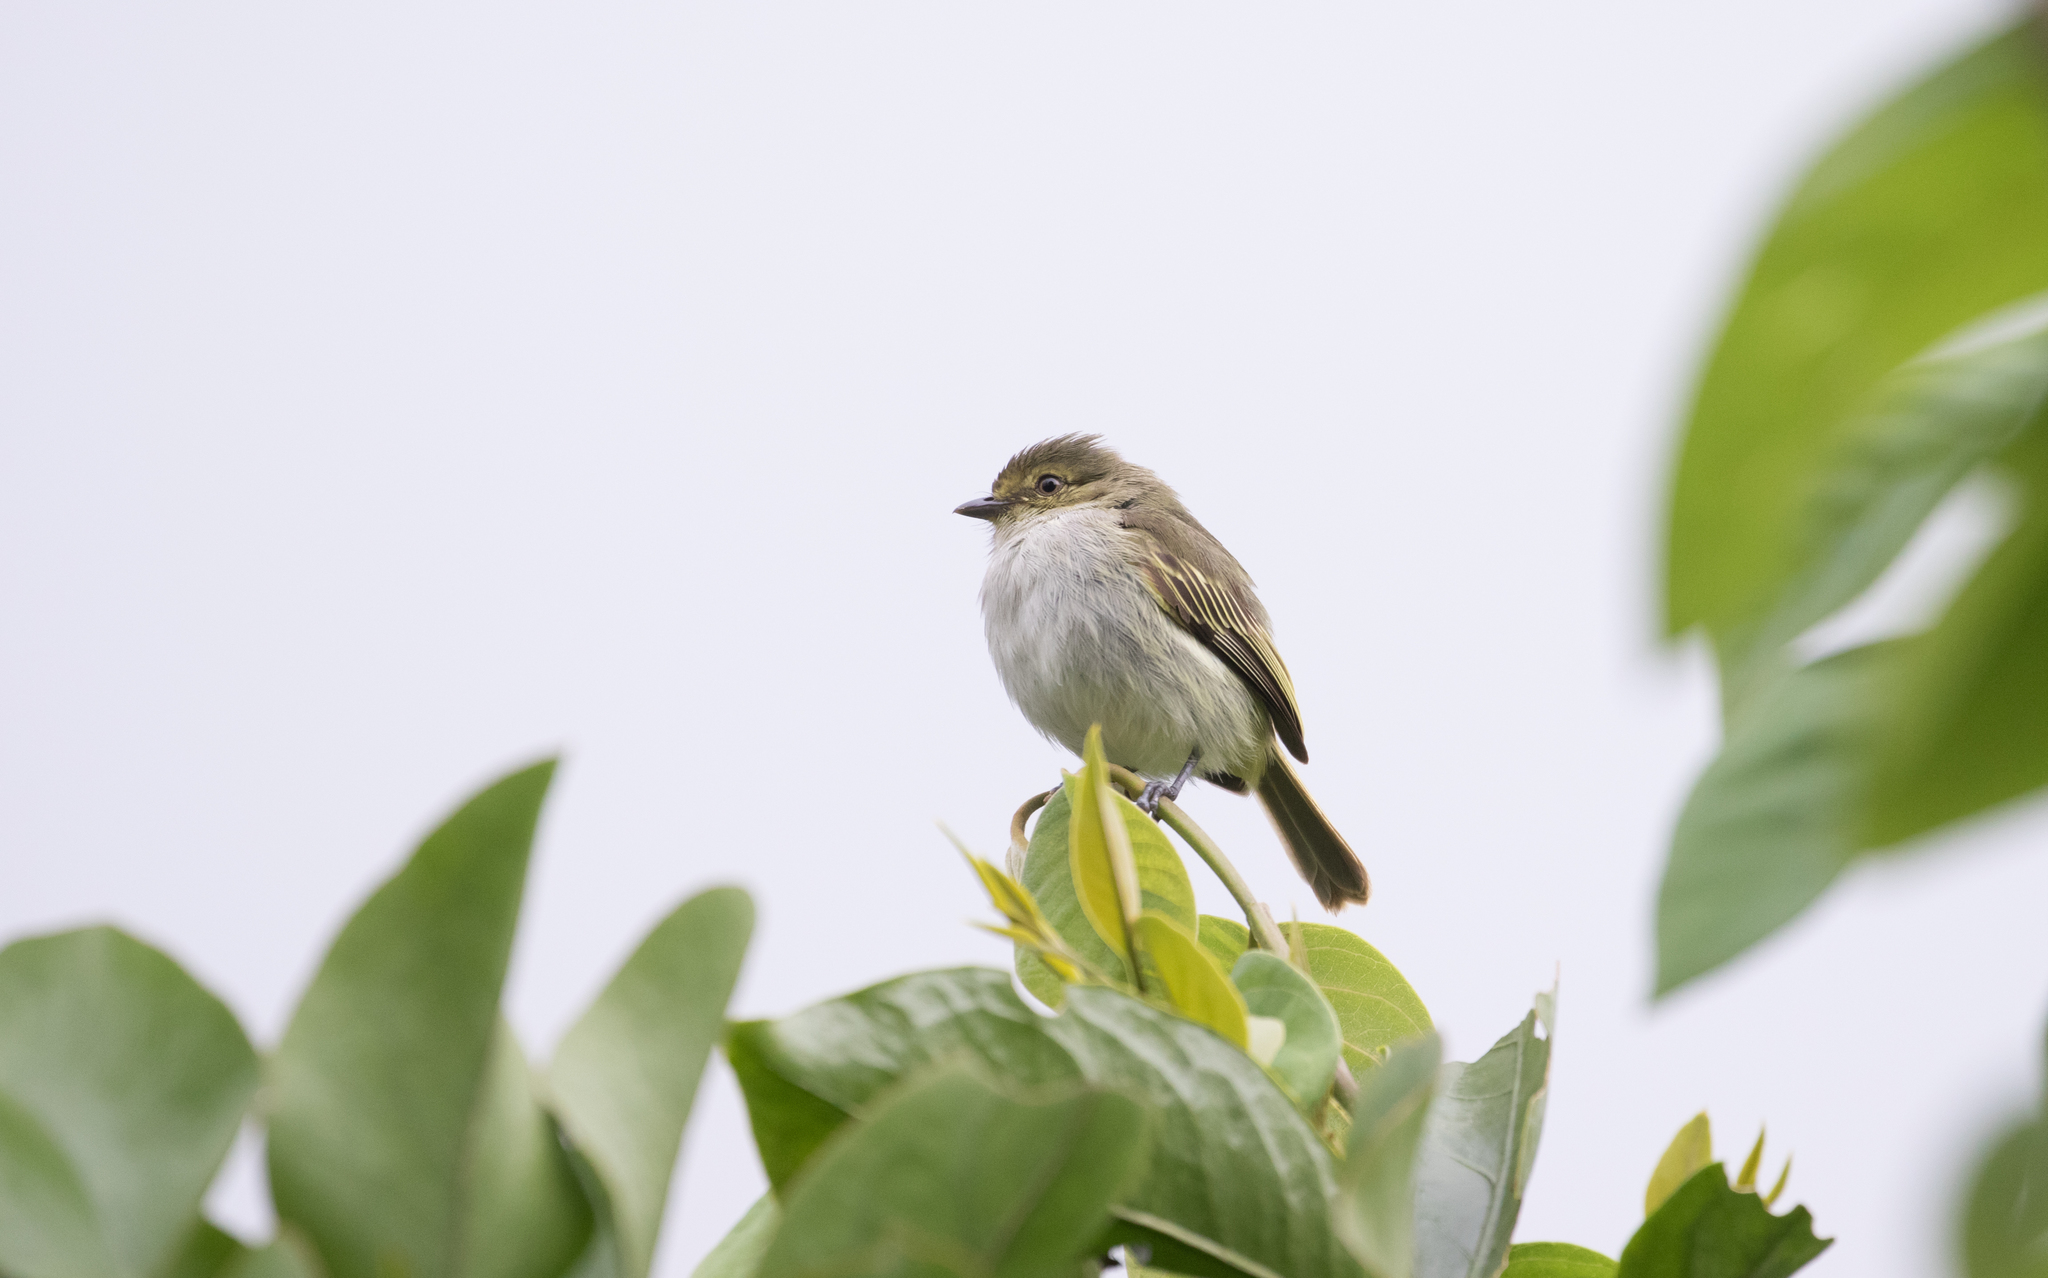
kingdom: Animalia
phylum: Chordata
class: Aves
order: Passeriformes
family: Tyrannidae
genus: Zimmerius
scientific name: Zimmerius chrysops
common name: Golden-faced tyrannulet
